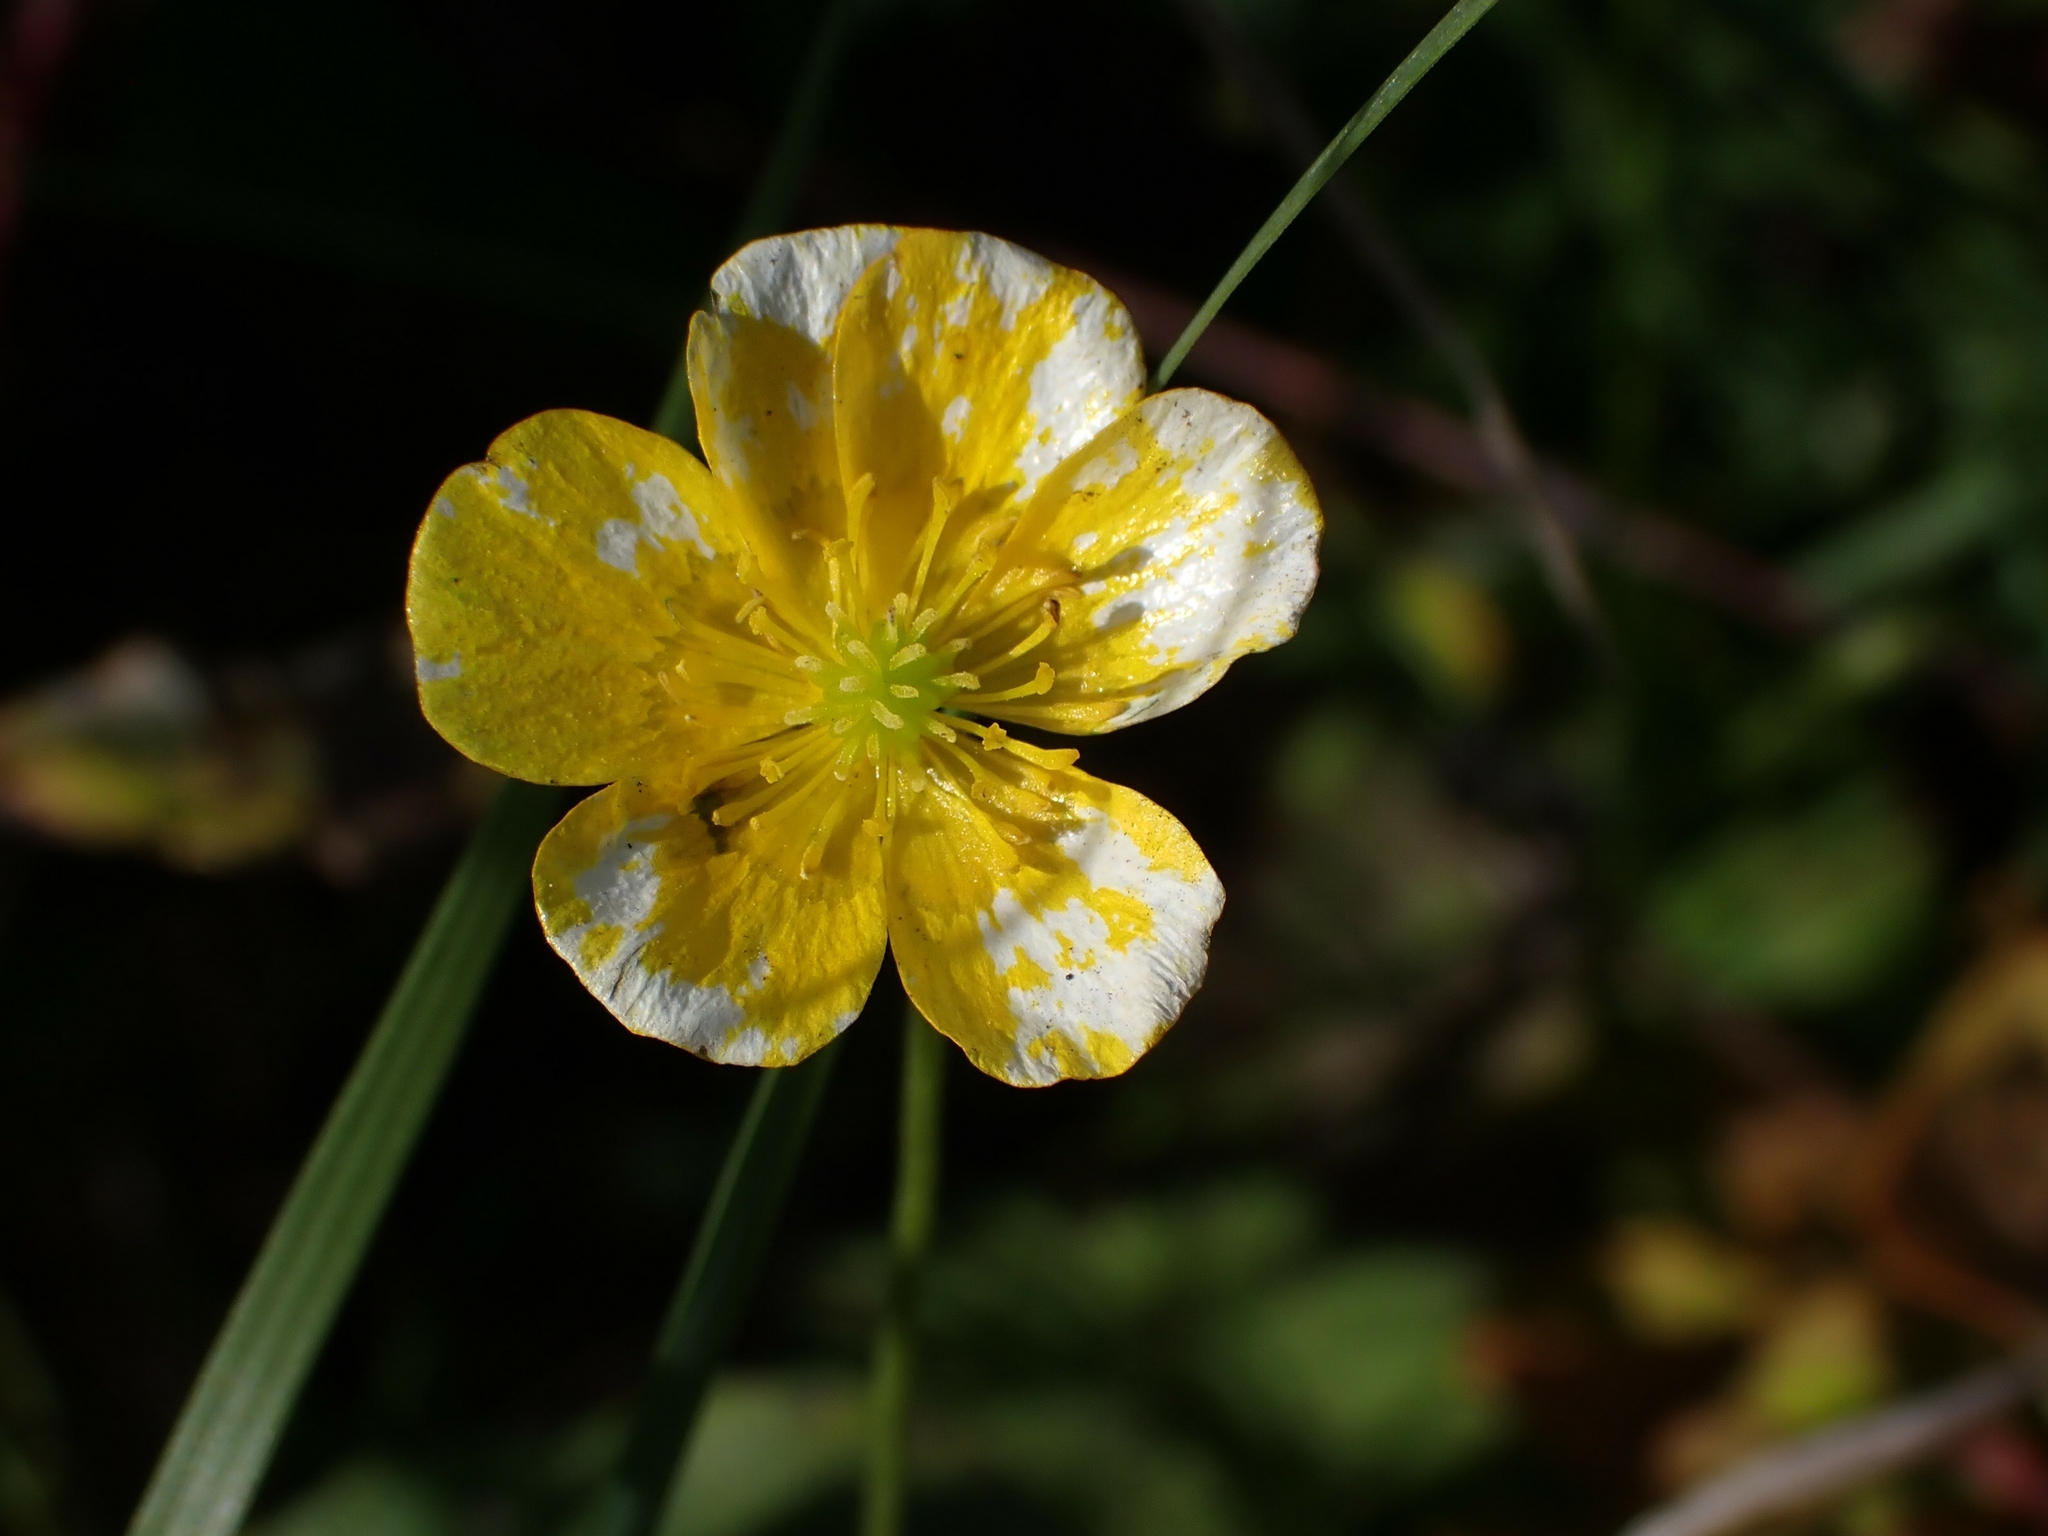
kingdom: Plantae
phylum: Tracheophyta
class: Magnoliopsida
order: Ranunculales
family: Ranunculaceae
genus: Ranunculus
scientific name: Ranunculus acris
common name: Meadow buttercup
